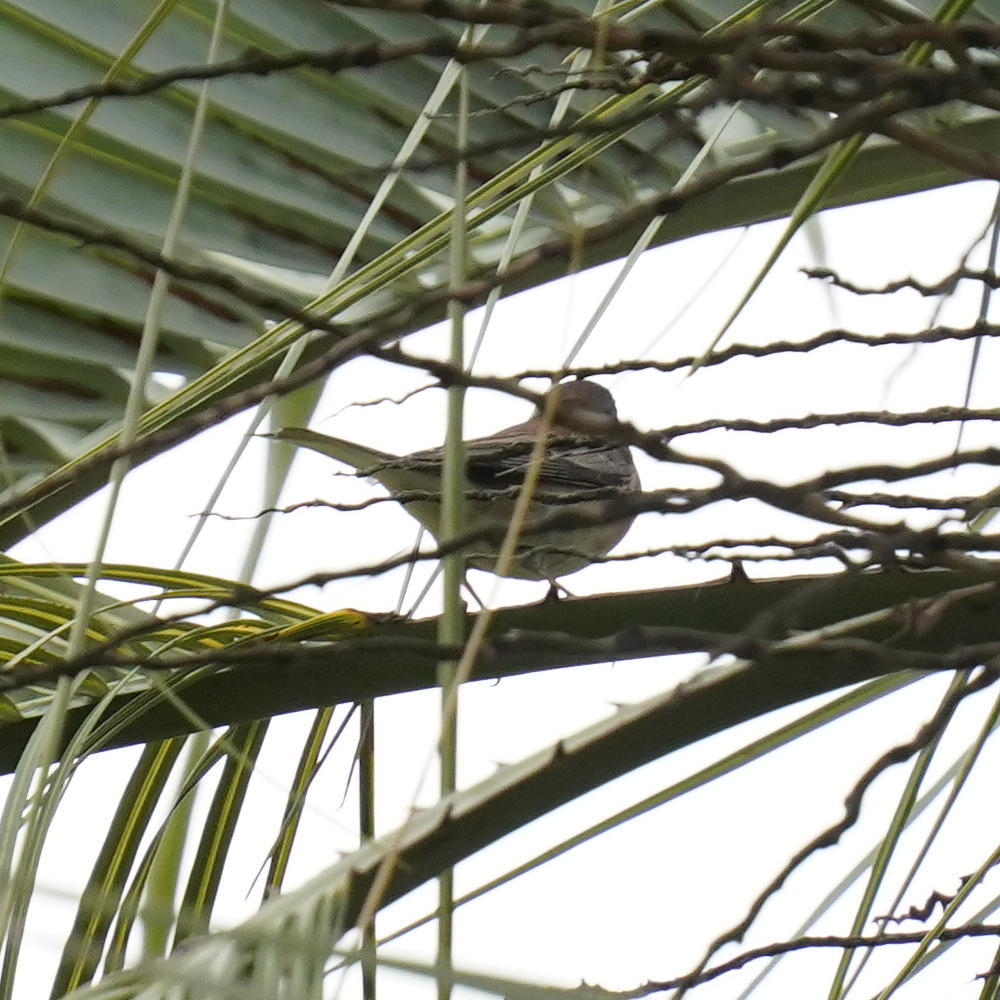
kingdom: Animalia
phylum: Chordata
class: Aves
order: Passeriformes
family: Passerellidae
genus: Junco
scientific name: Junco hyemalis
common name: Dark-eyed junco
